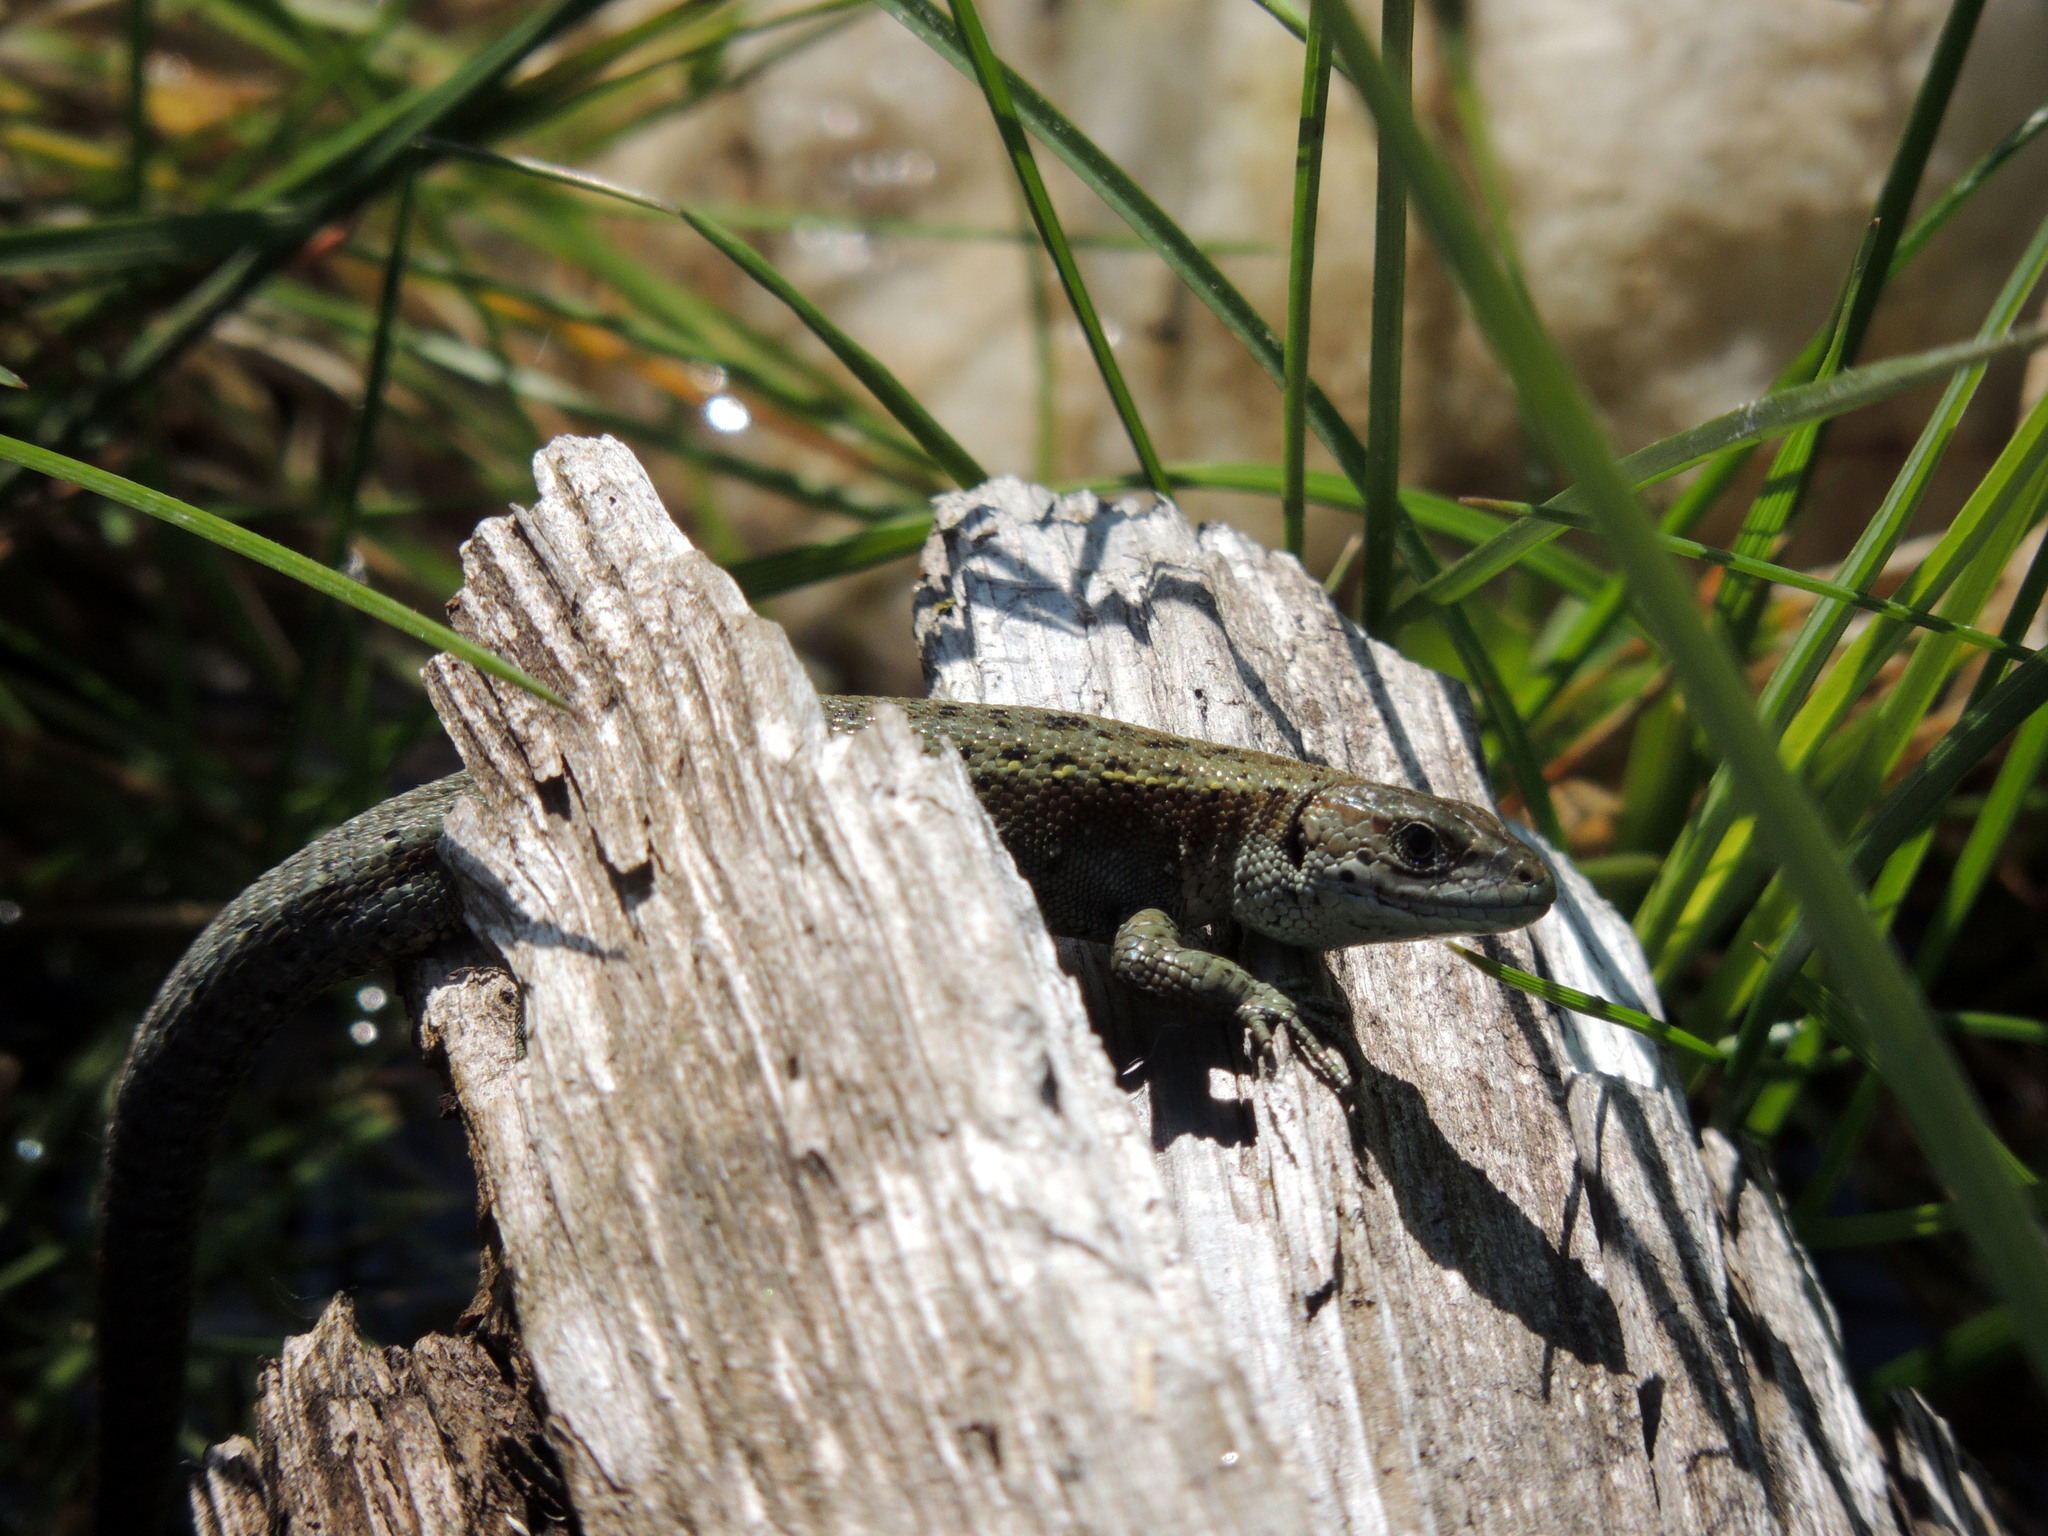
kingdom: Animalia
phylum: Chordata
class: Squamata
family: Lacertidae
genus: Zootoca
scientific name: Zootoca vivipara
